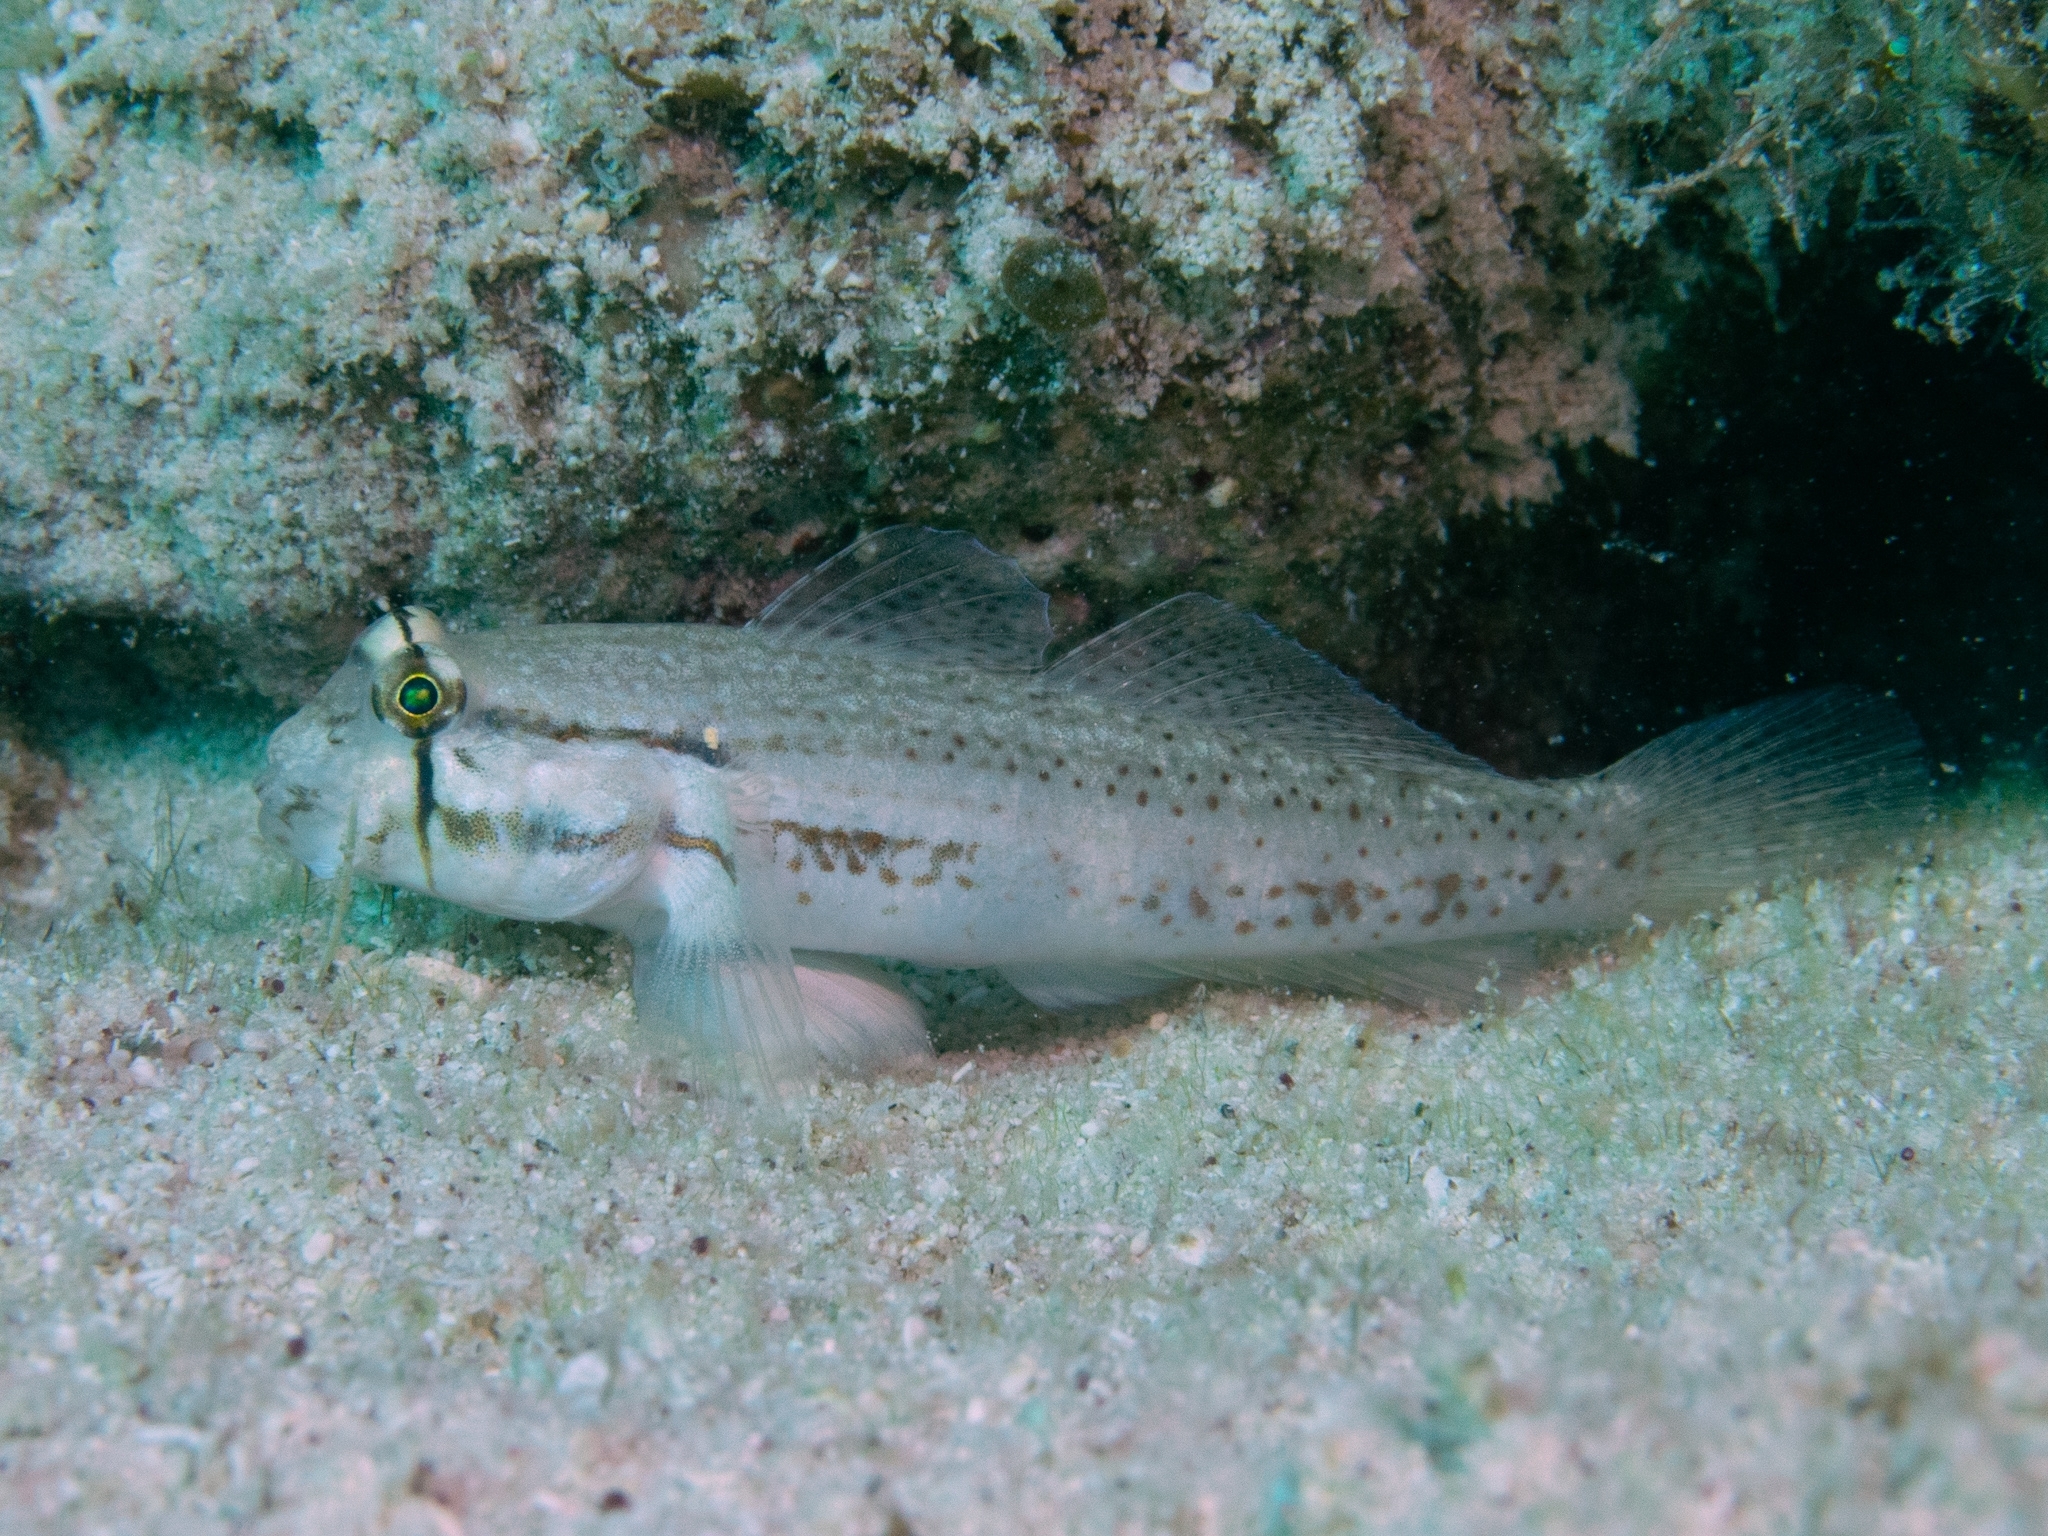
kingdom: Animalia
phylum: Chordata
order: Perciformes
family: Gobiidae
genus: Gnatholepis
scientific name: Gnatholepis thompsoni
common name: Goldspot goby
